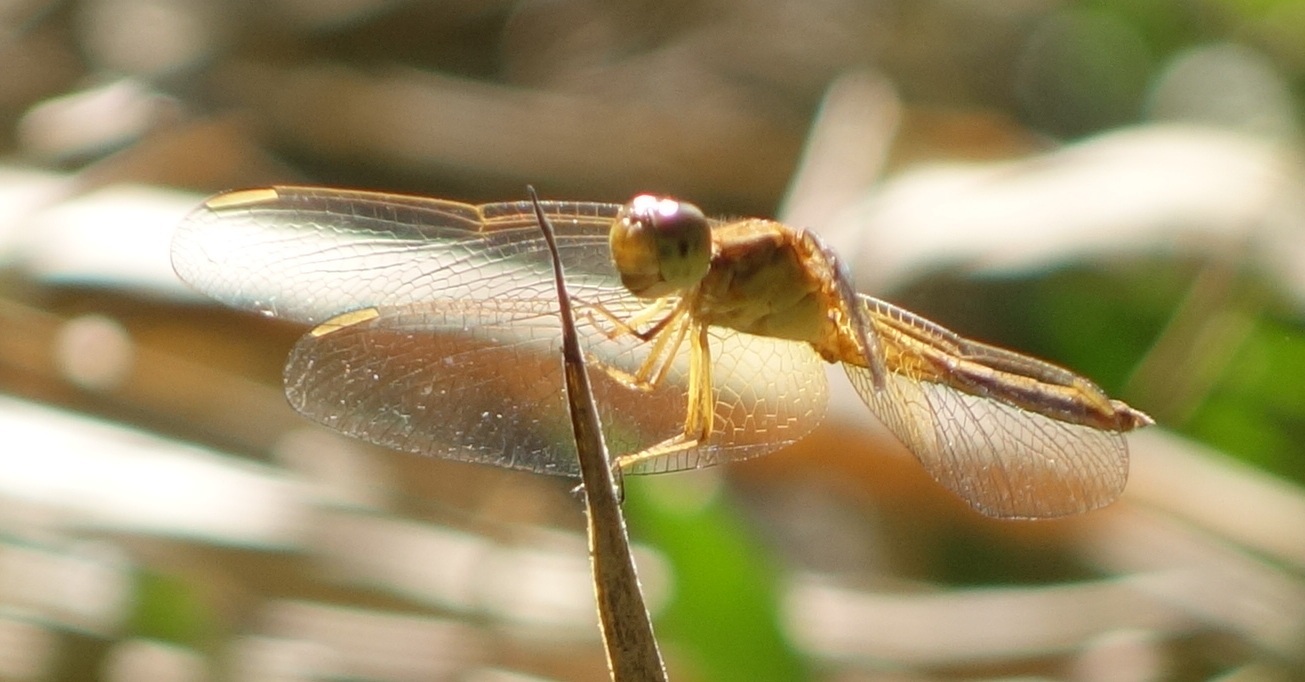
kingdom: Animalia
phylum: Arthropoda
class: Insecta
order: Odonata
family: Libellulidae
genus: Neurothemis
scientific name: Neurothemis intermedia
